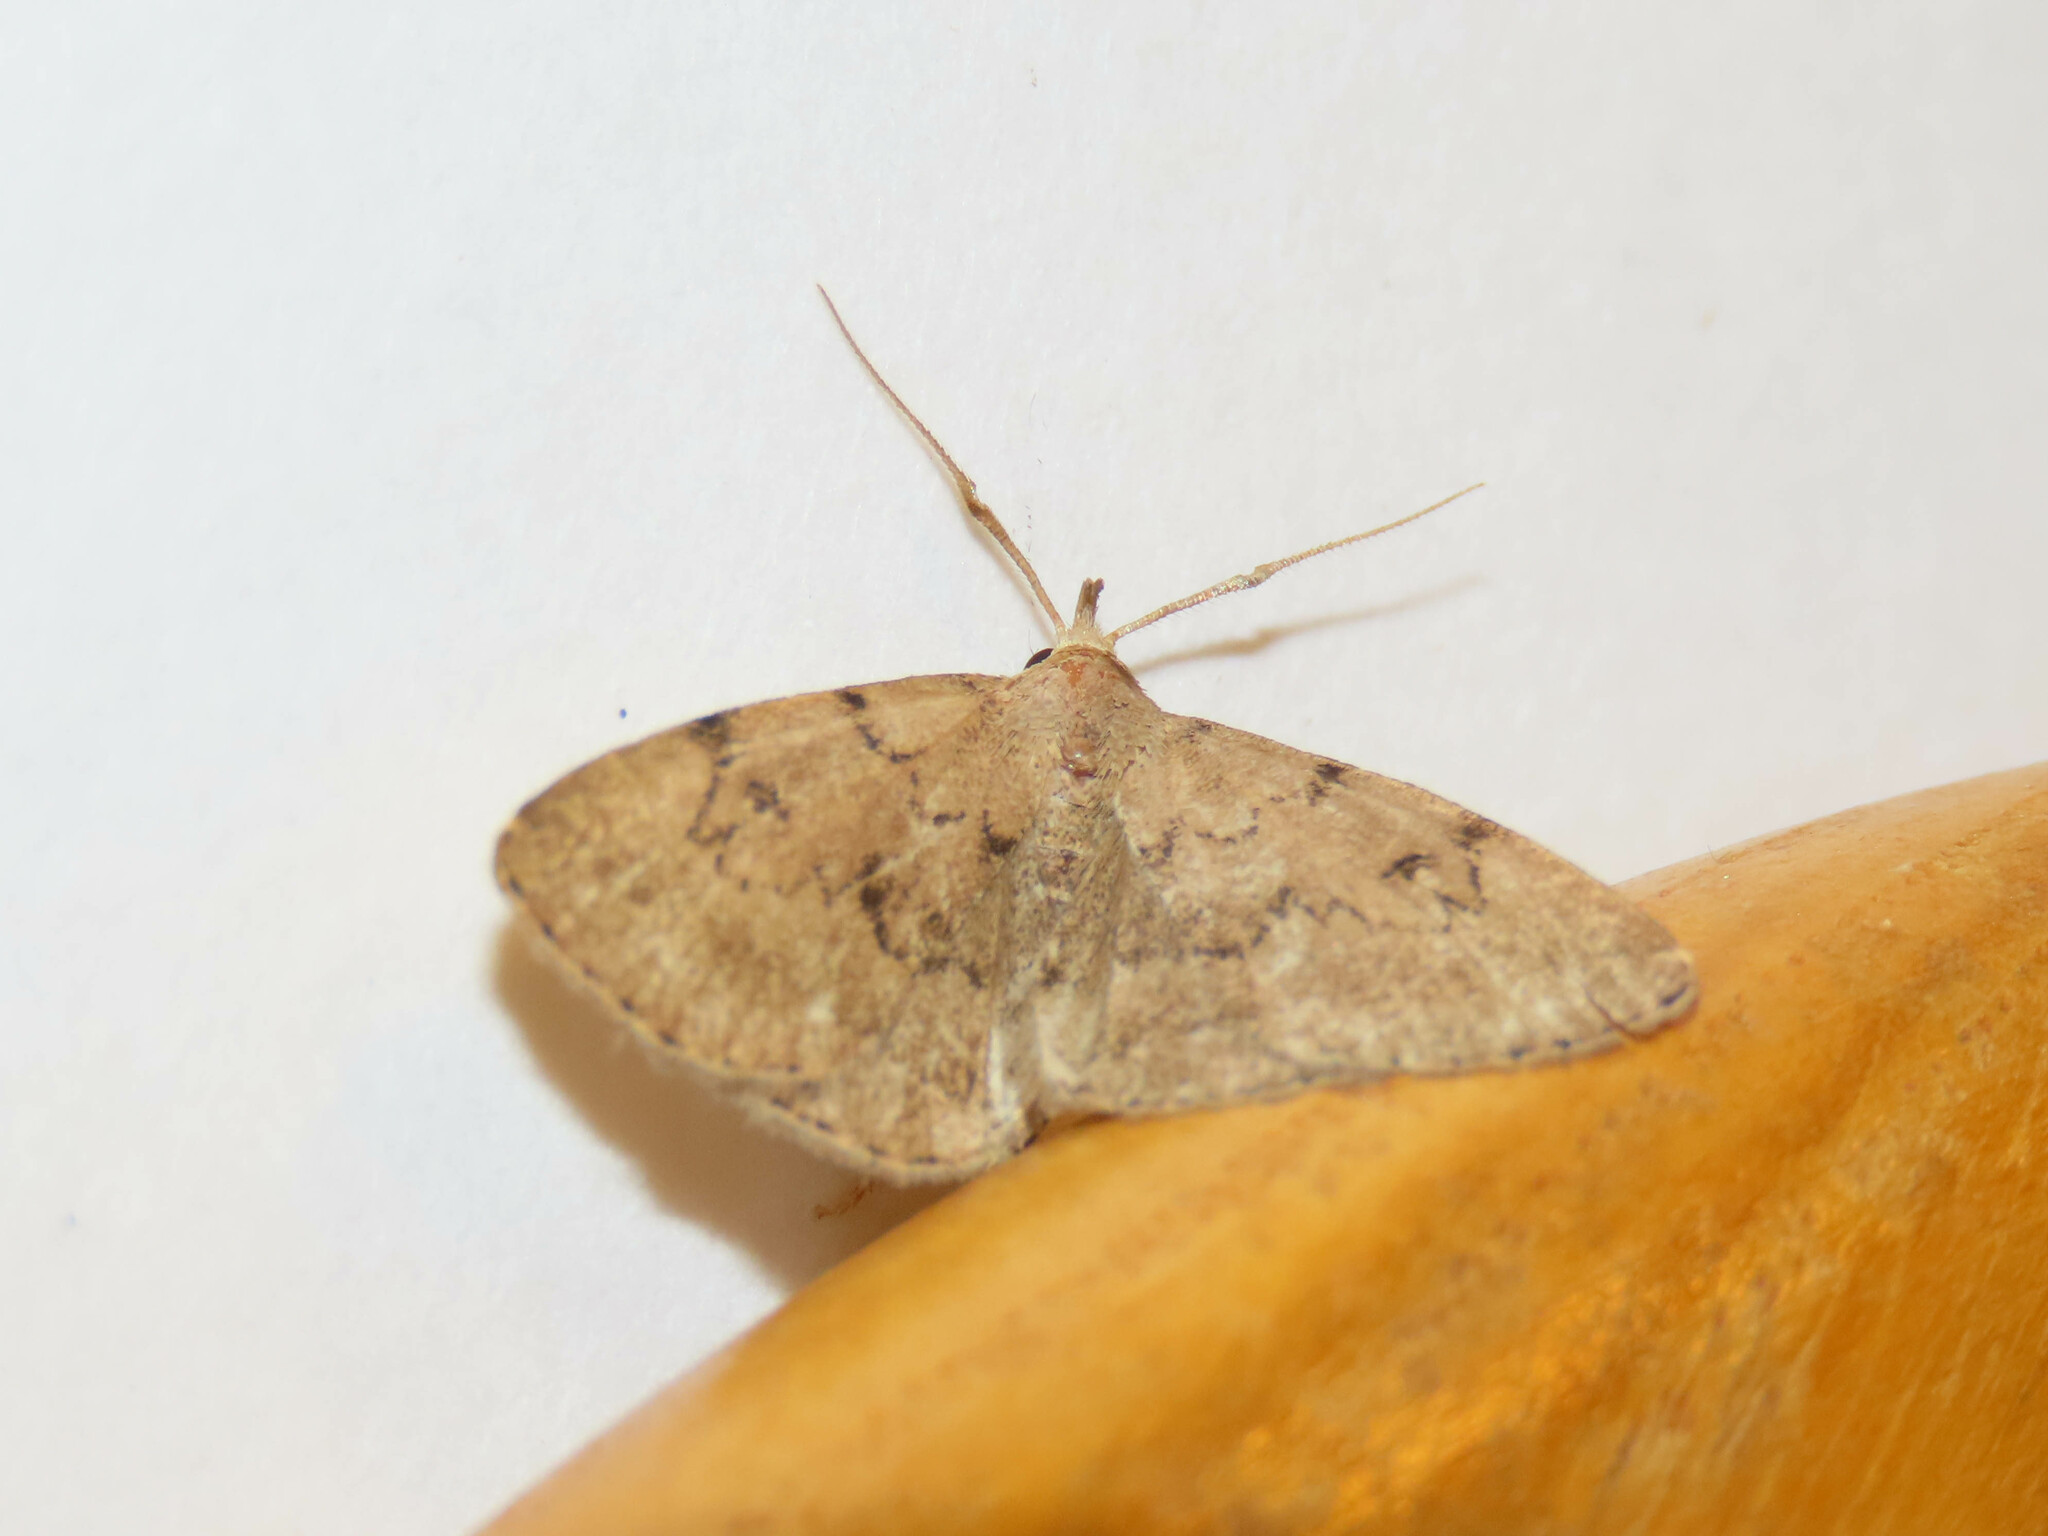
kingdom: Animalia
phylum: Arthropoda
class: Insecta
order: Lepidoptera
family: Erebidae
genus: Zanclognatha
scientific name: Zanclognatha dentata
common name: Toothed fan-foot
